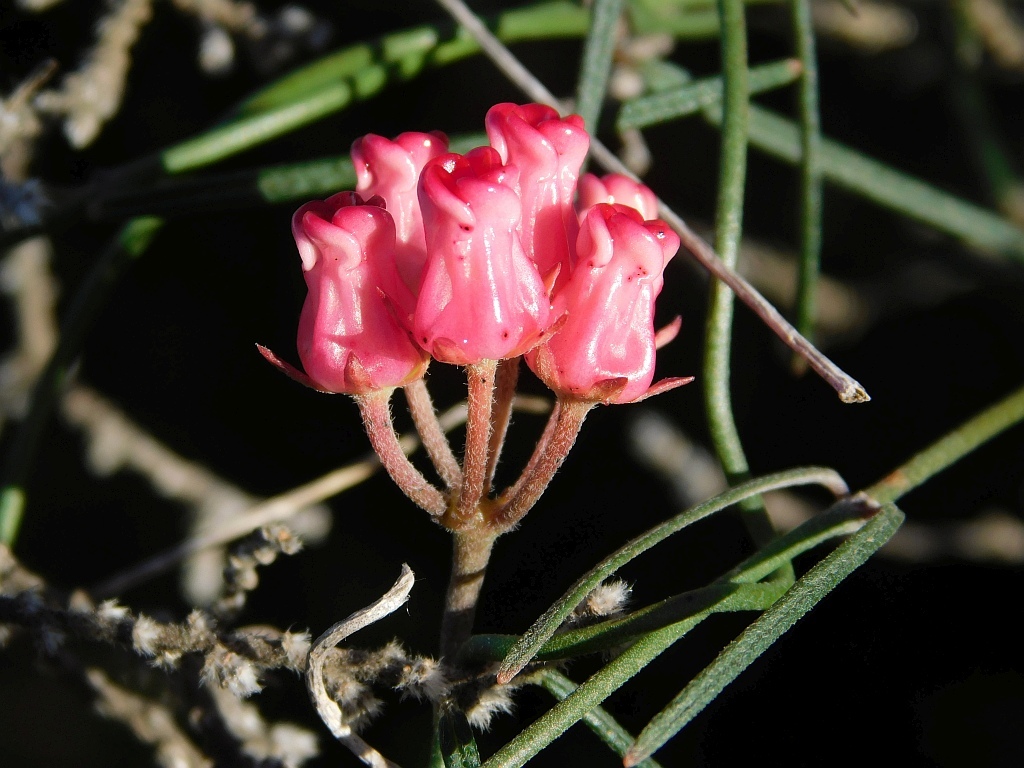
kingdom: Plantae
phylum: Tracheophyta
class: Magnoliopsida
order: Gentianales
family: Apocynaceae
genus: Microloma
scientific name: Microloma tenuifolium
